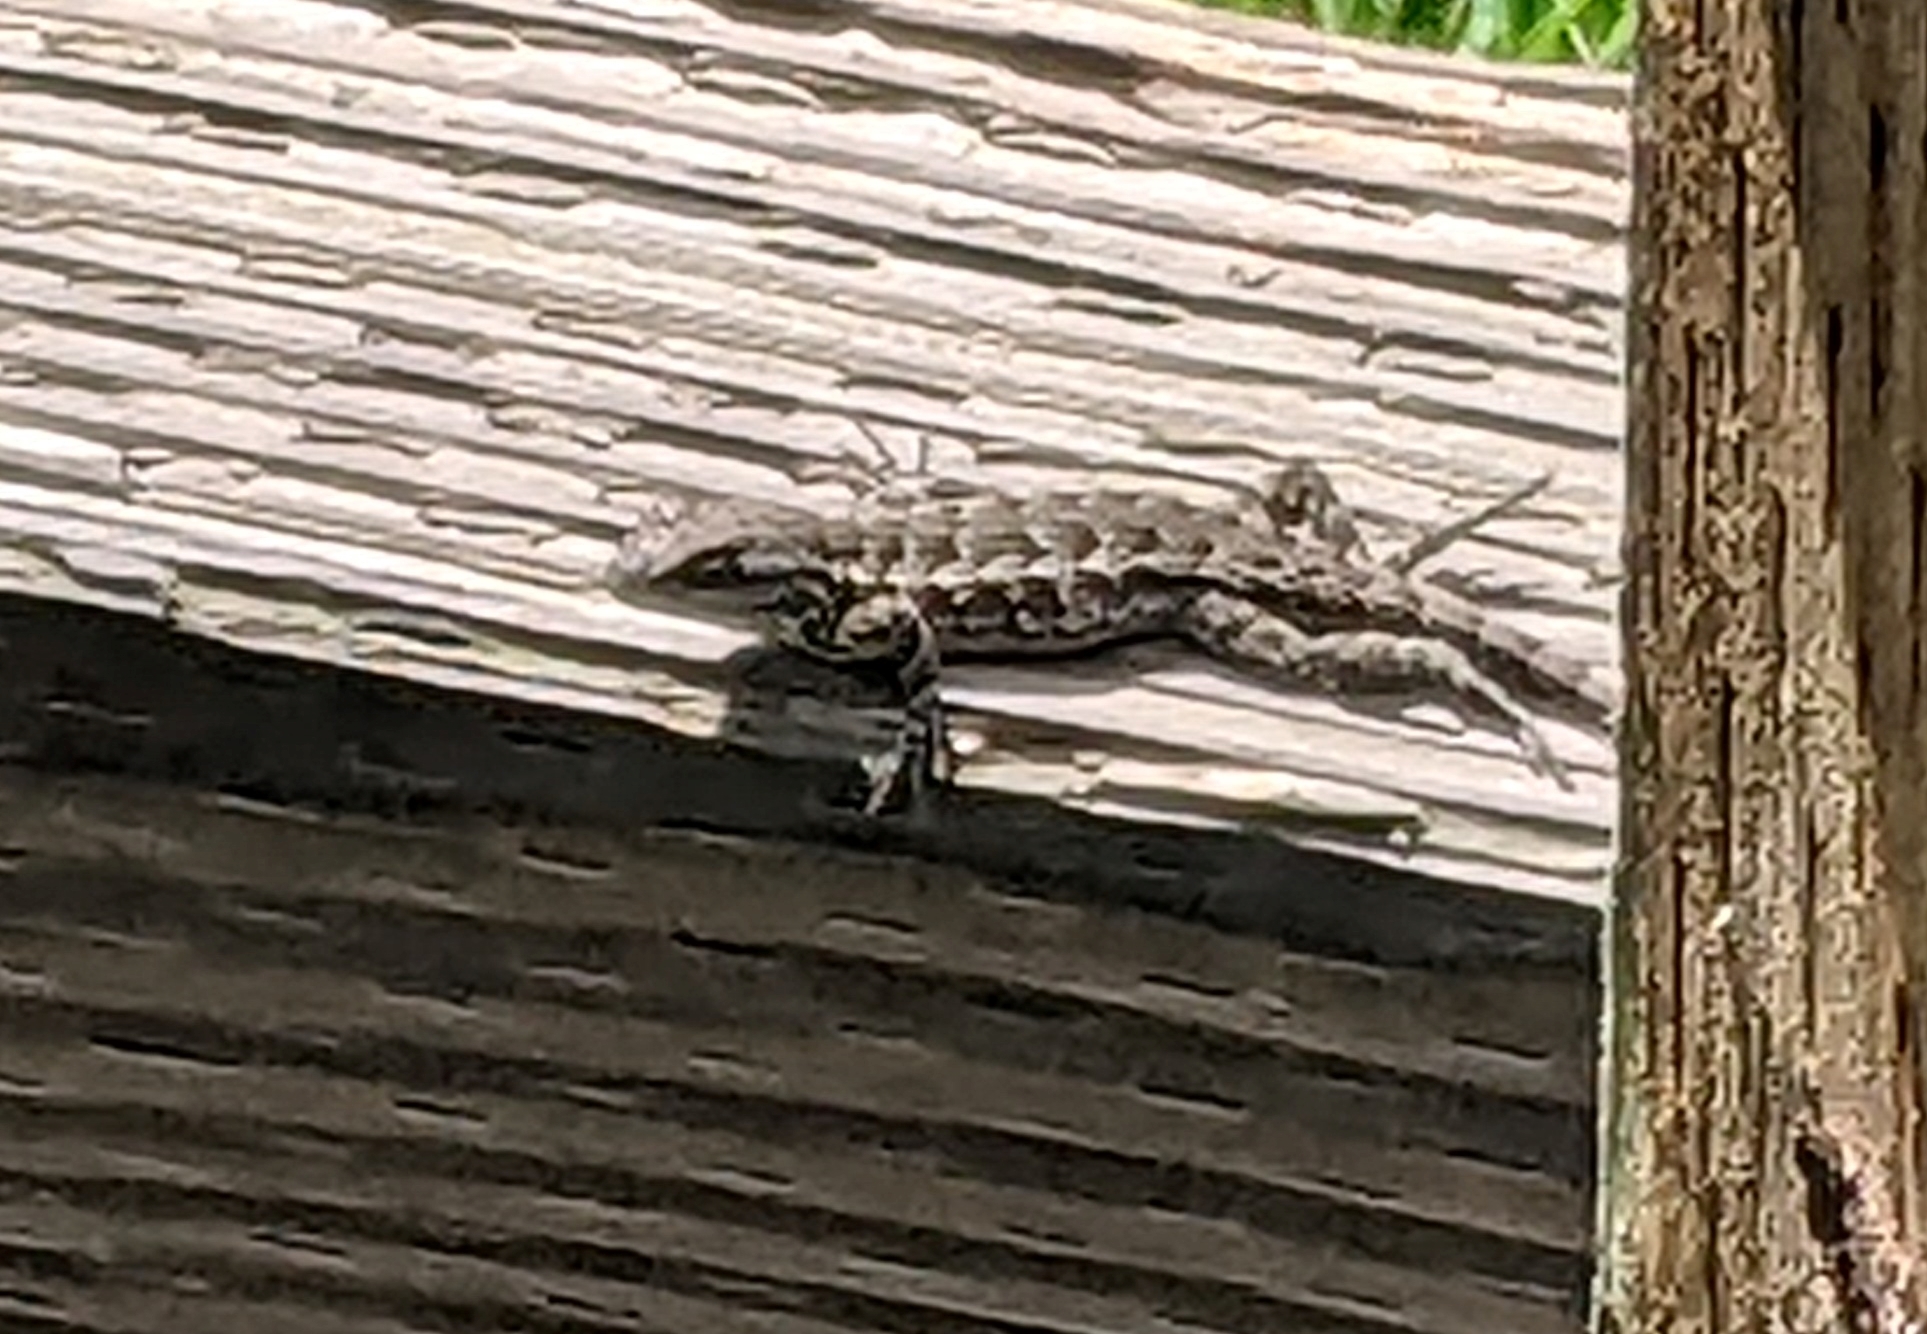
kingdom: Animalia
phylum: Chordata
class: Squamata
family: Phrynosomatidae
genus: Sceloporus
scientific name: Sceloporus occidentalis
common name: Western fence lizard
